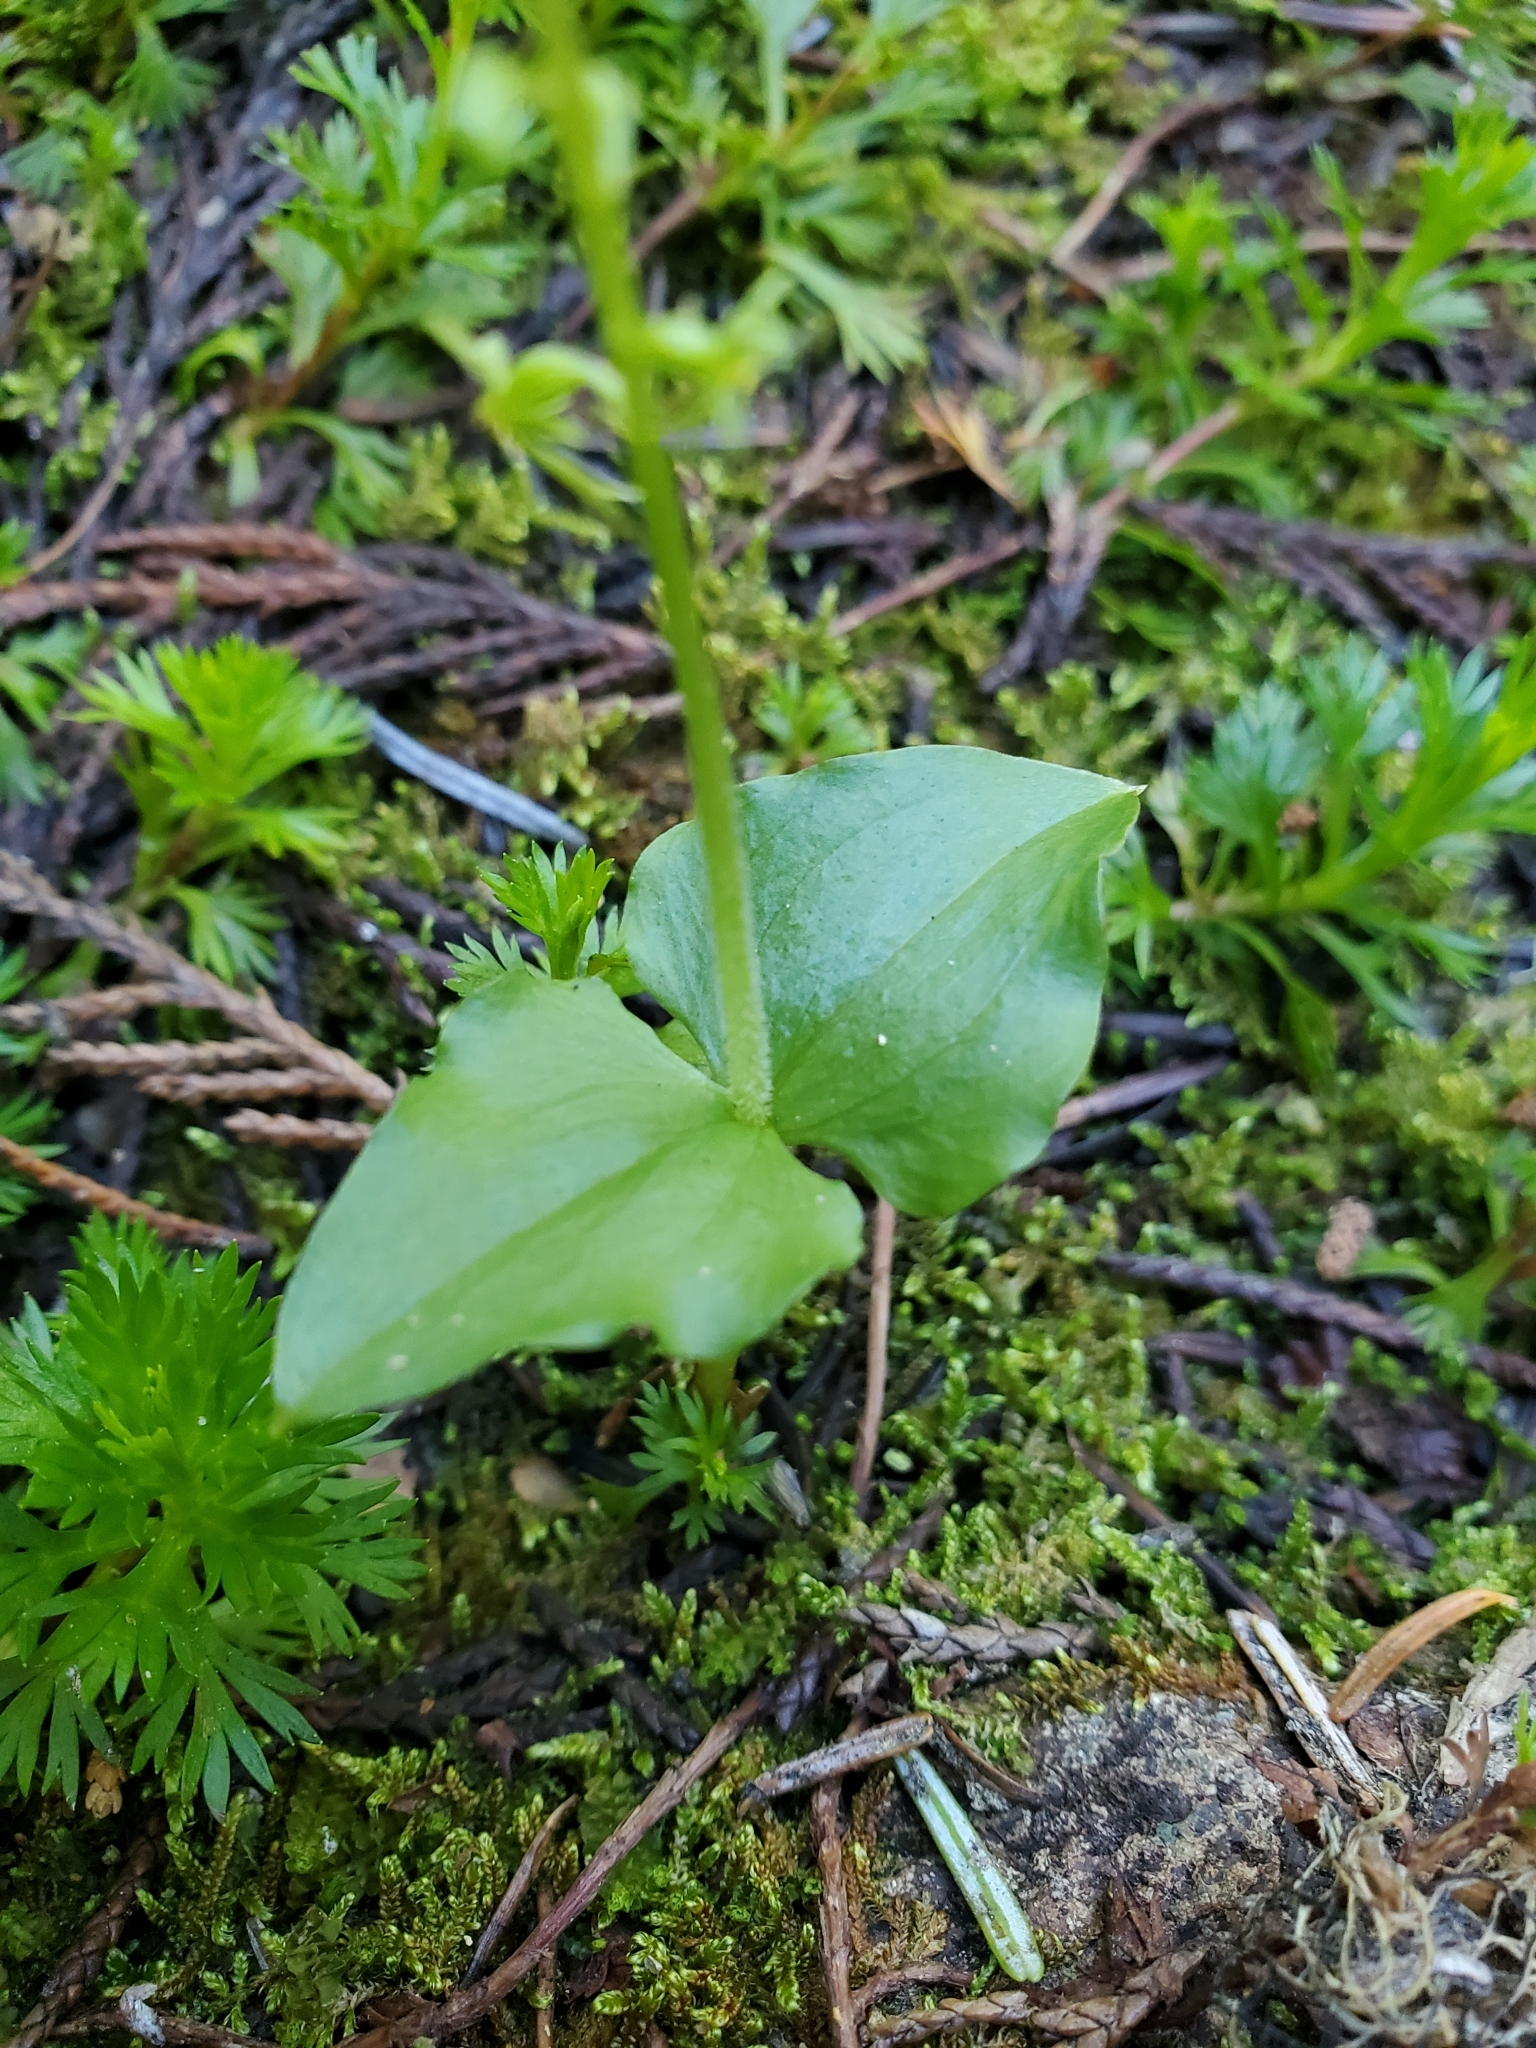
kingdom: Plantae
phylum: Tracheophyta
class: Liliopsida
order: Asparagales
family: Orchidaceae
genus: Neottia
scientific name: Neottia cordata
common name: Lesser twayblade
